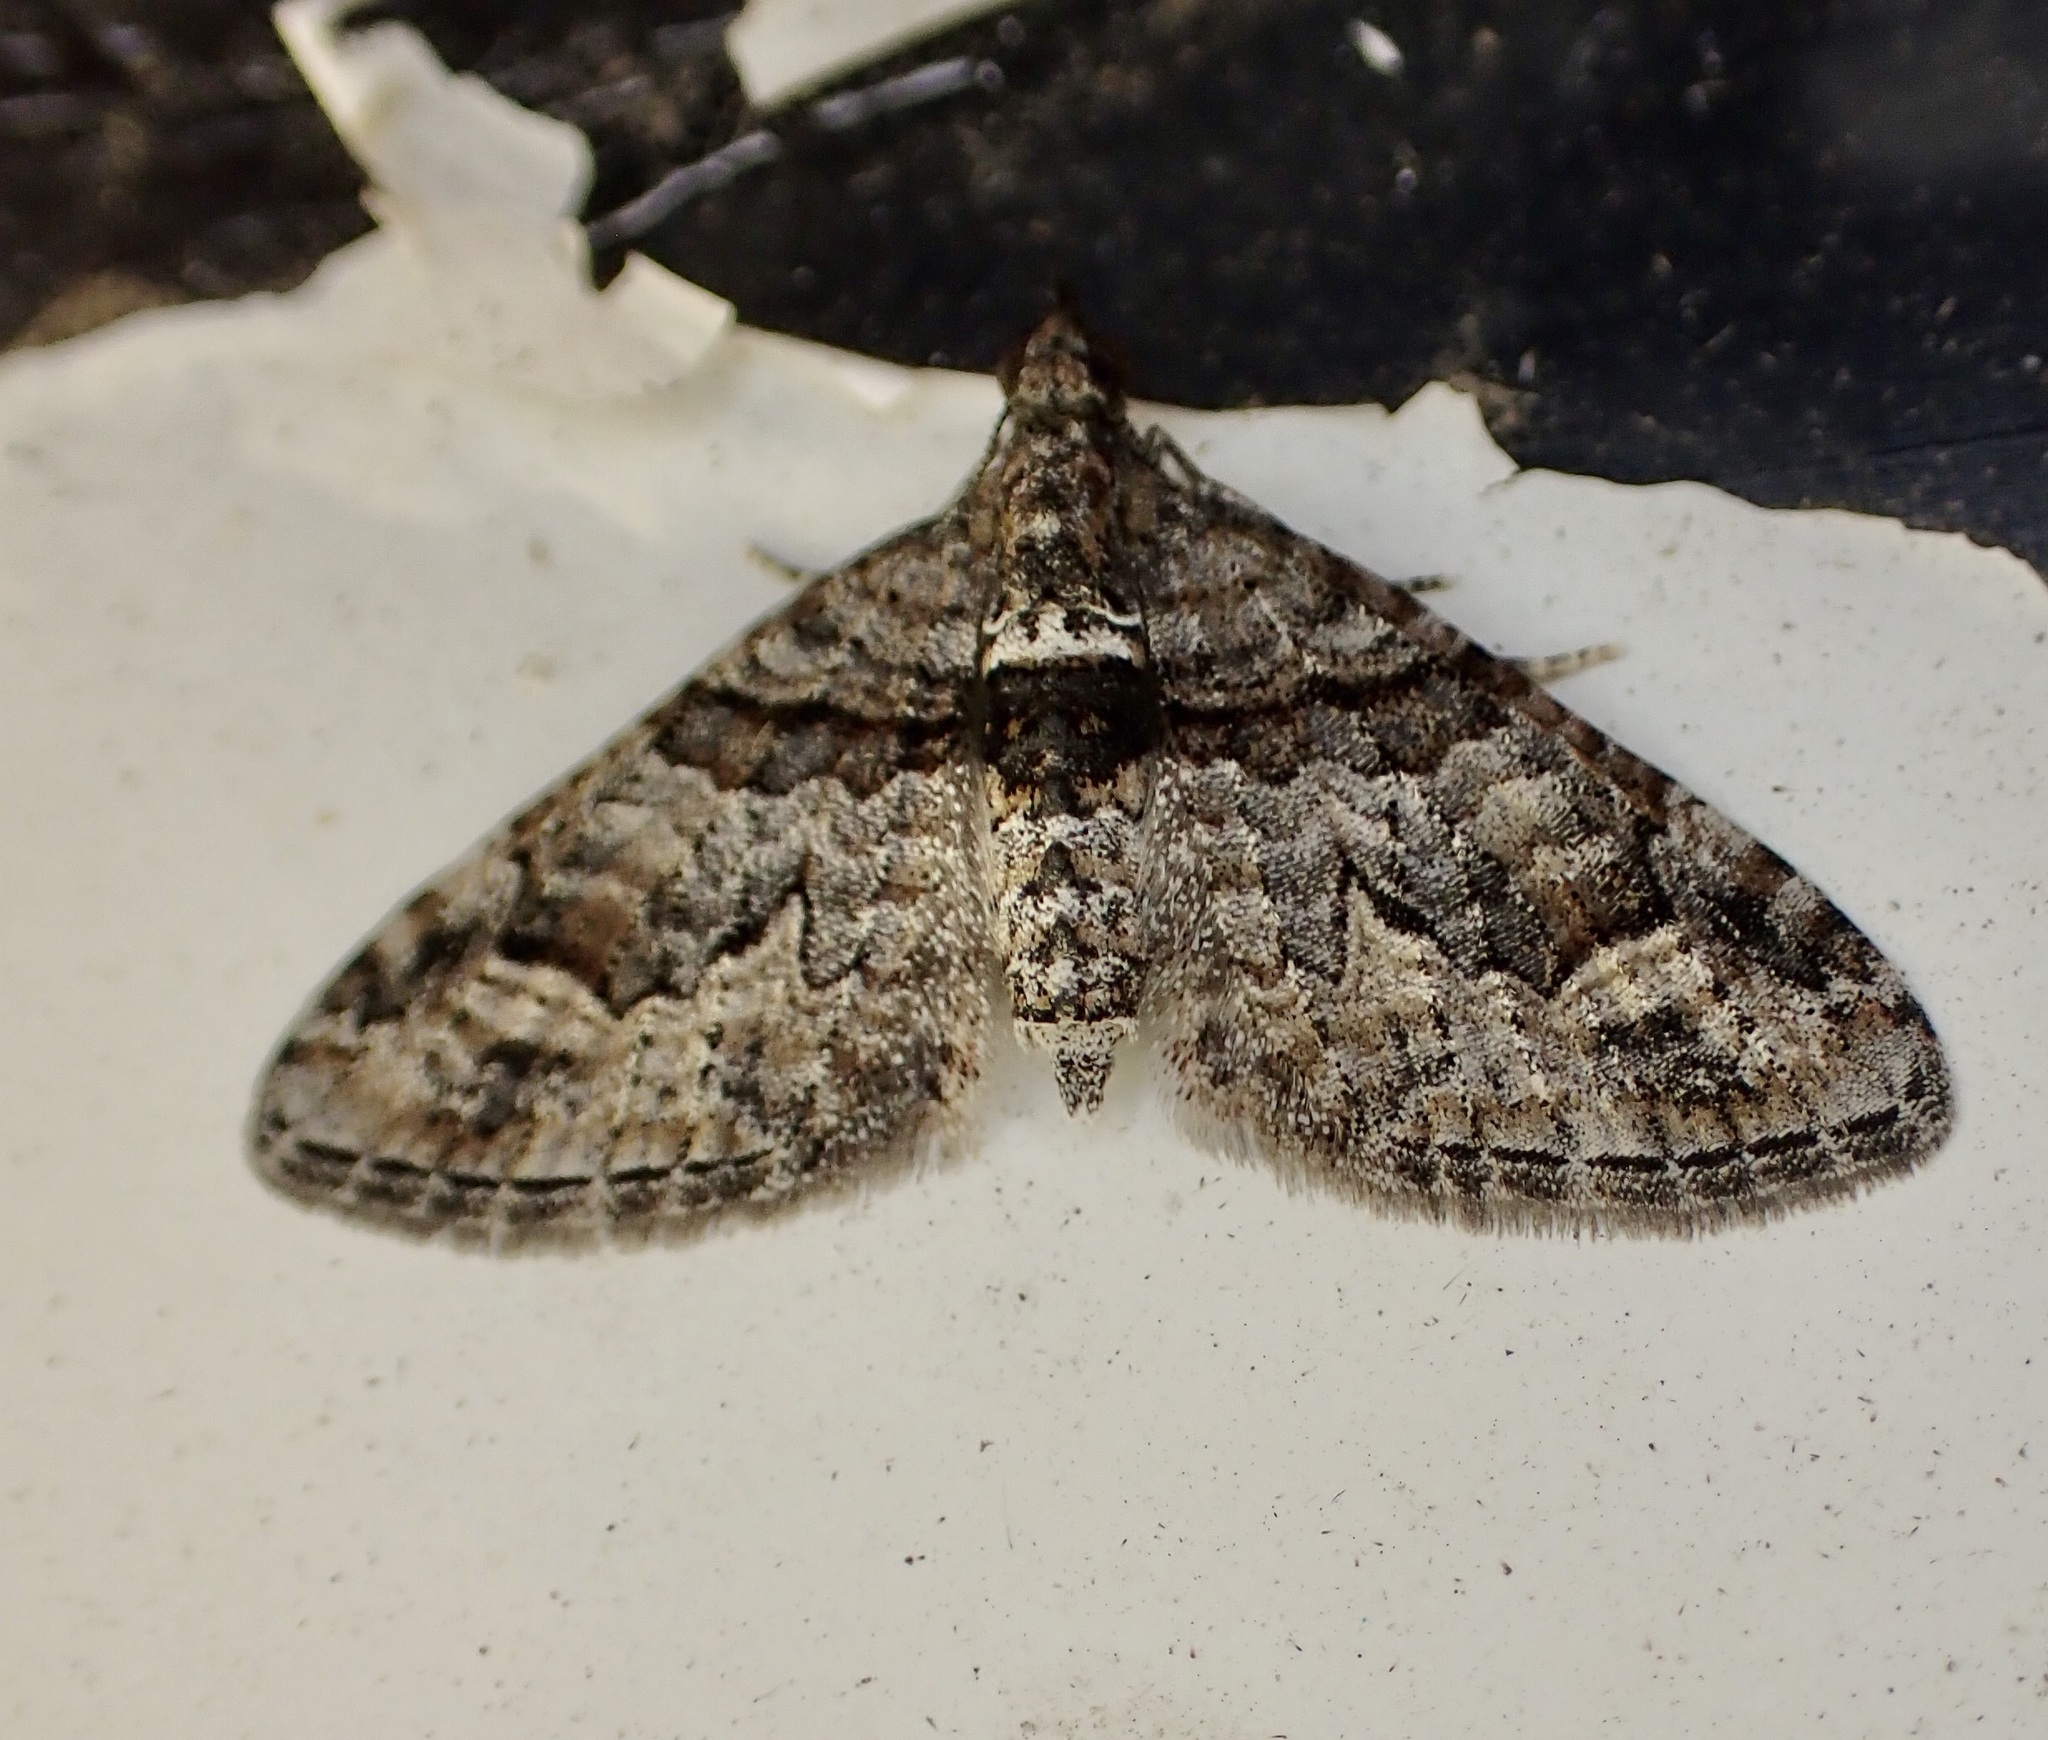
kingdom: Animalia
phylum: Arthropoda
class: Insecta
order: Lepidoptera
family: Geometridae
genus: Phrissogonus
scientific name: Phrissogonus laticostata
